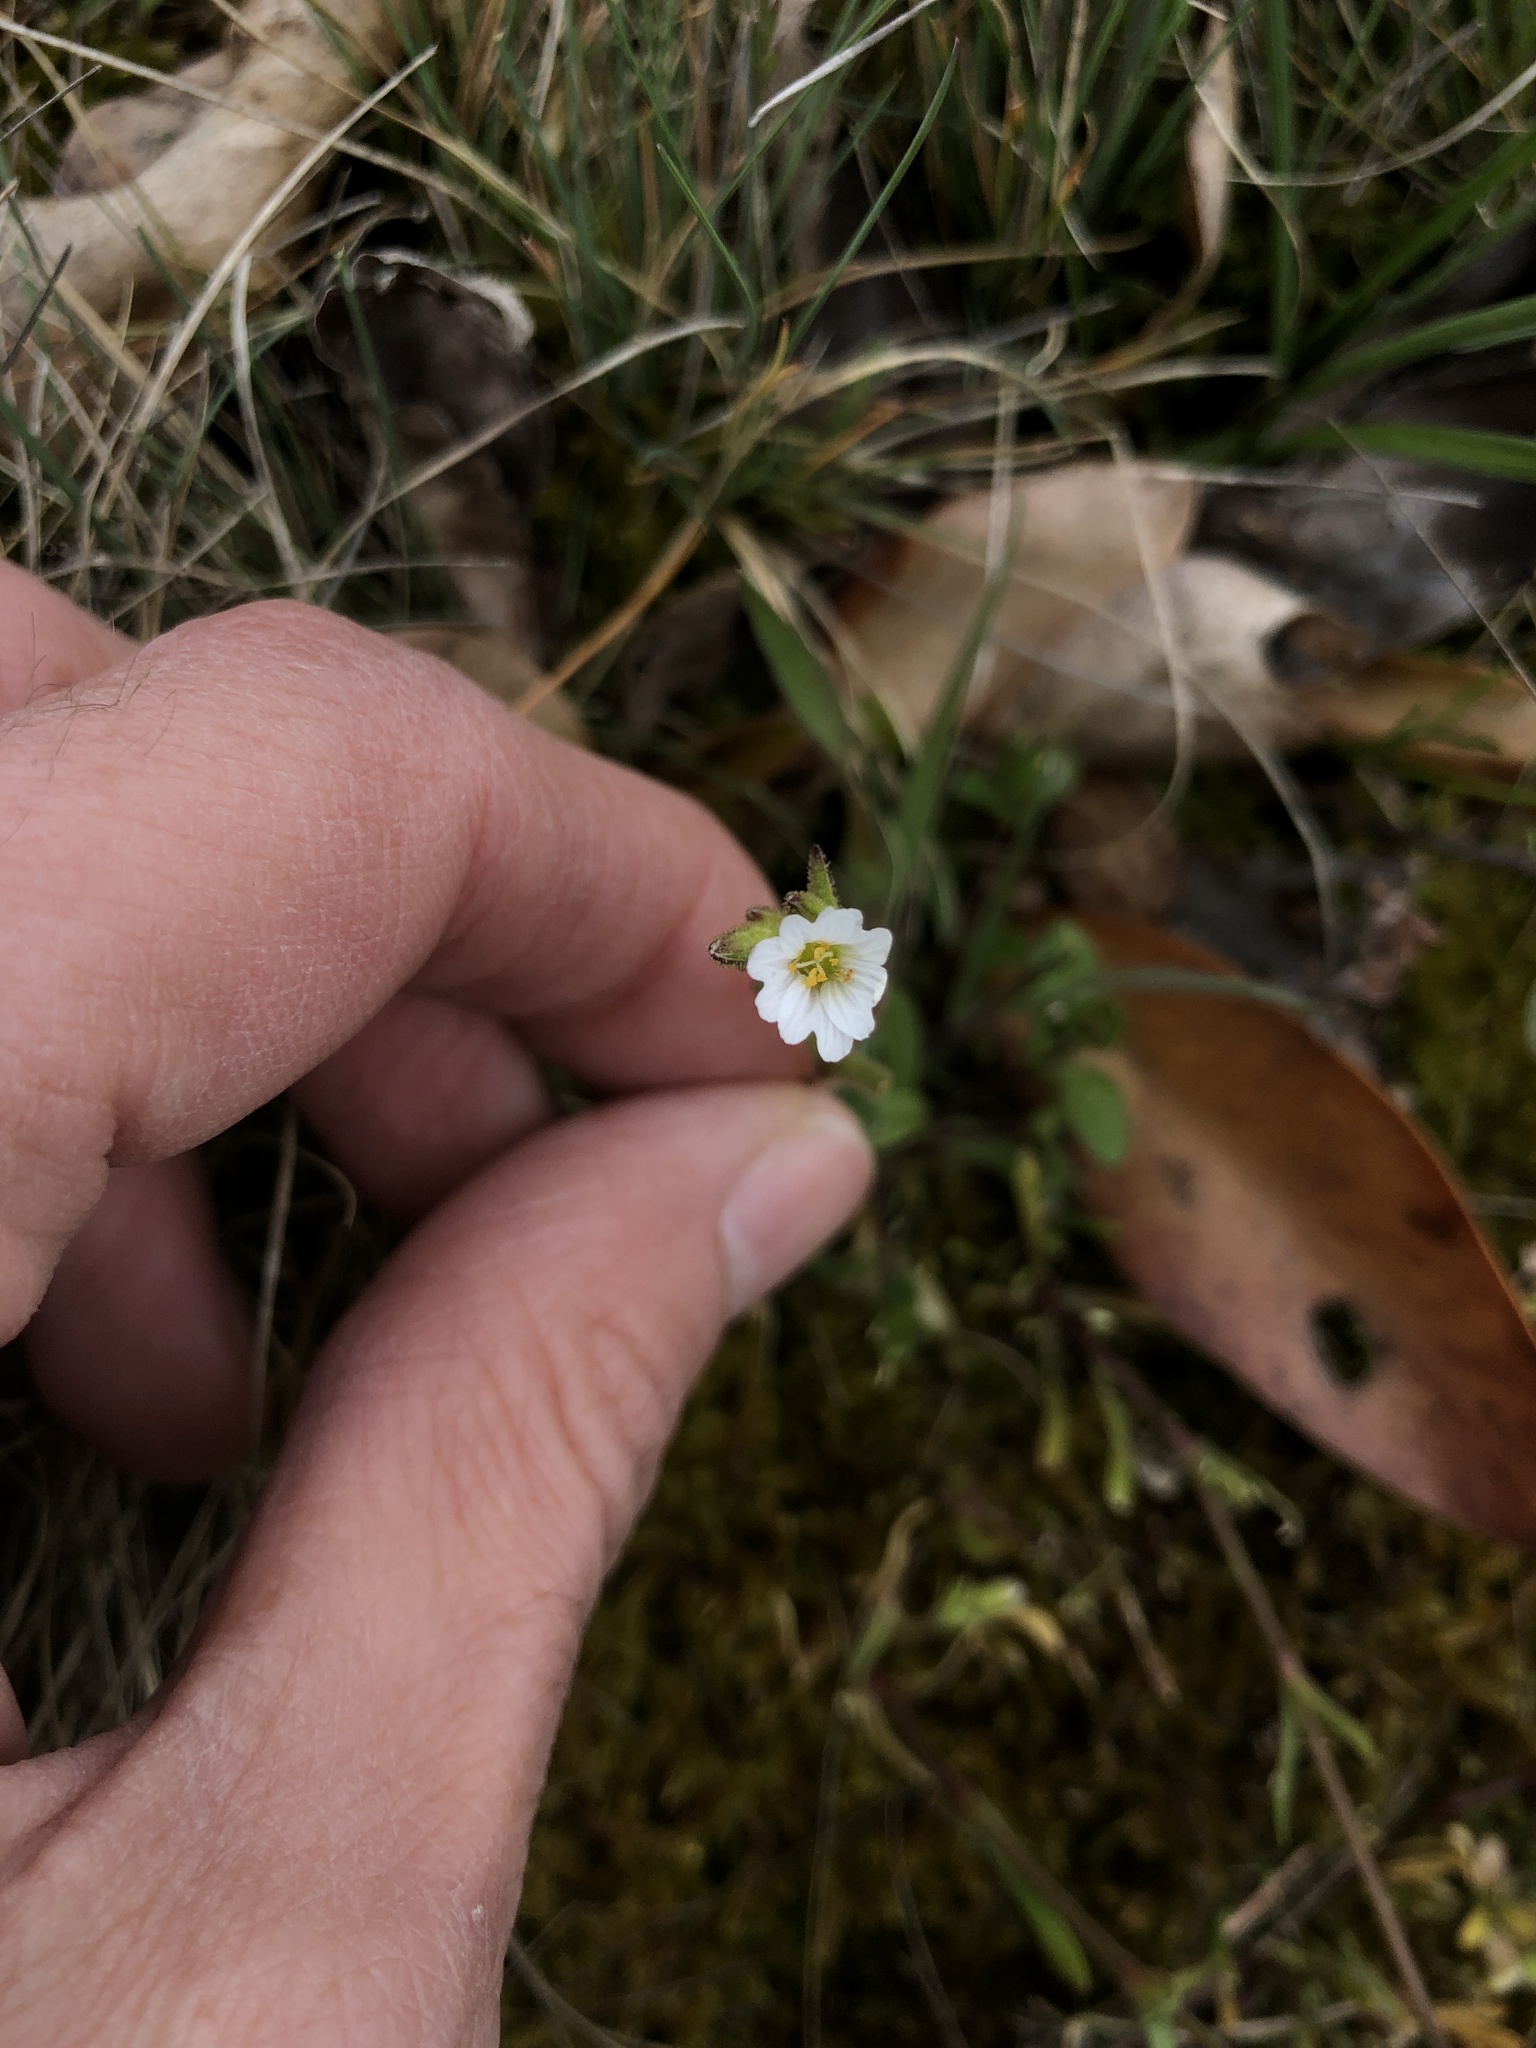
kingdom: Plantae
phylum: Tracheophyta
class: Magnoliopsida
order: Caryophyllales
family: Caryophyllaceae
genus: Dichodon
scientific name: Dichodon viscidum
